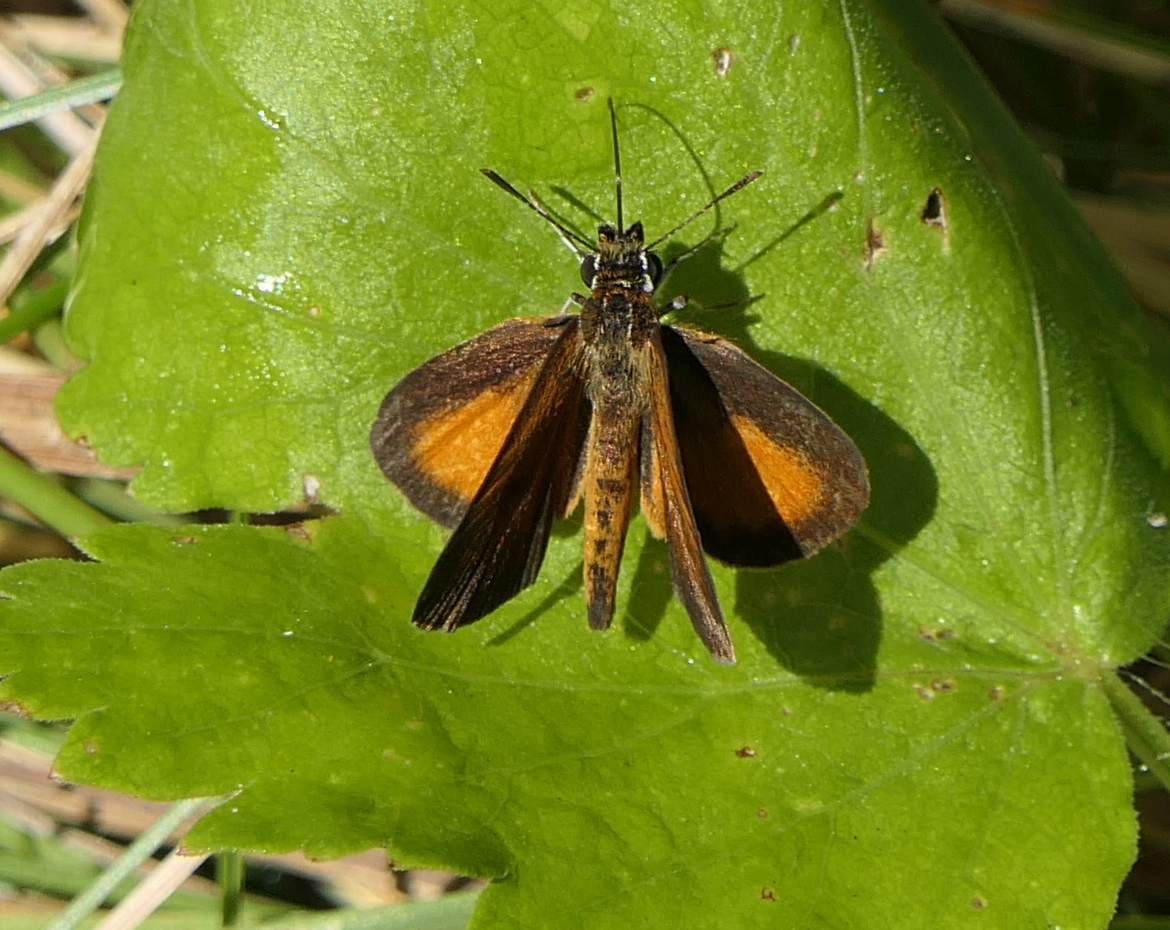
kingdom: Animalia
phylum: Arthropoda
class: Insecta
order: Lepidoptera
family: Hesperiidae
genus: Ancyloxypha
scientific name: Ancyloxypha numitor
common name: Least skipper
